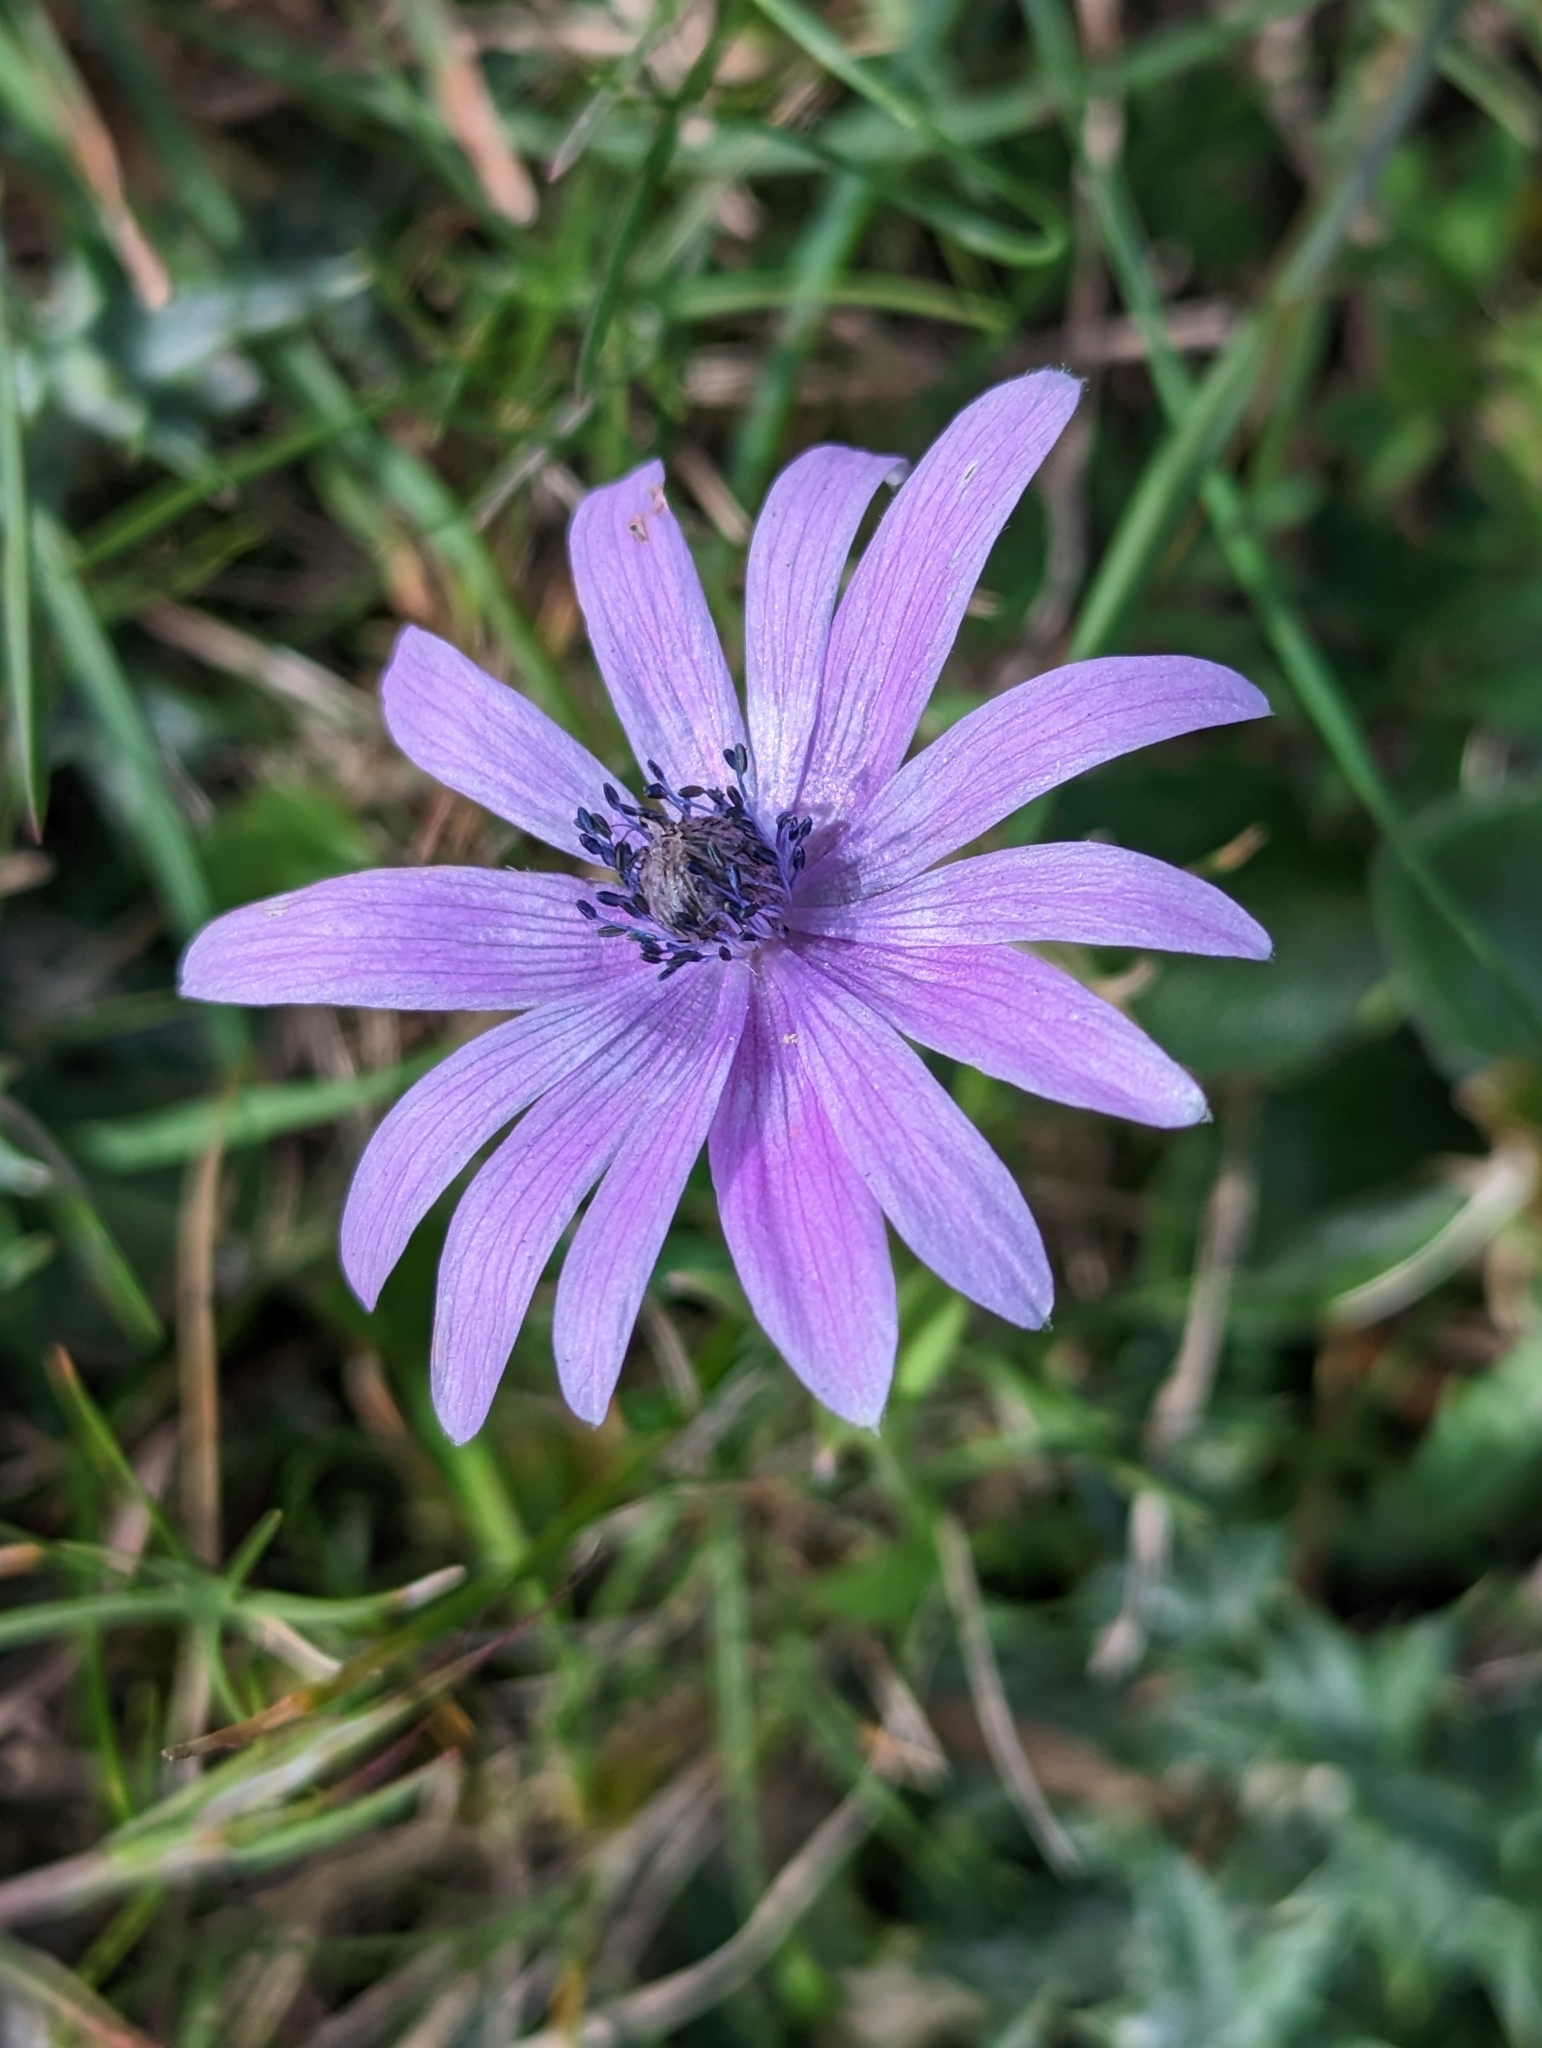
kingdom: Plantae
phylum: Tracheophyta
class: Magnoliopsida
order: Ranunculales
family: Ranunculaceae
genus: Anemone
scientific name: Anemone hortensis
